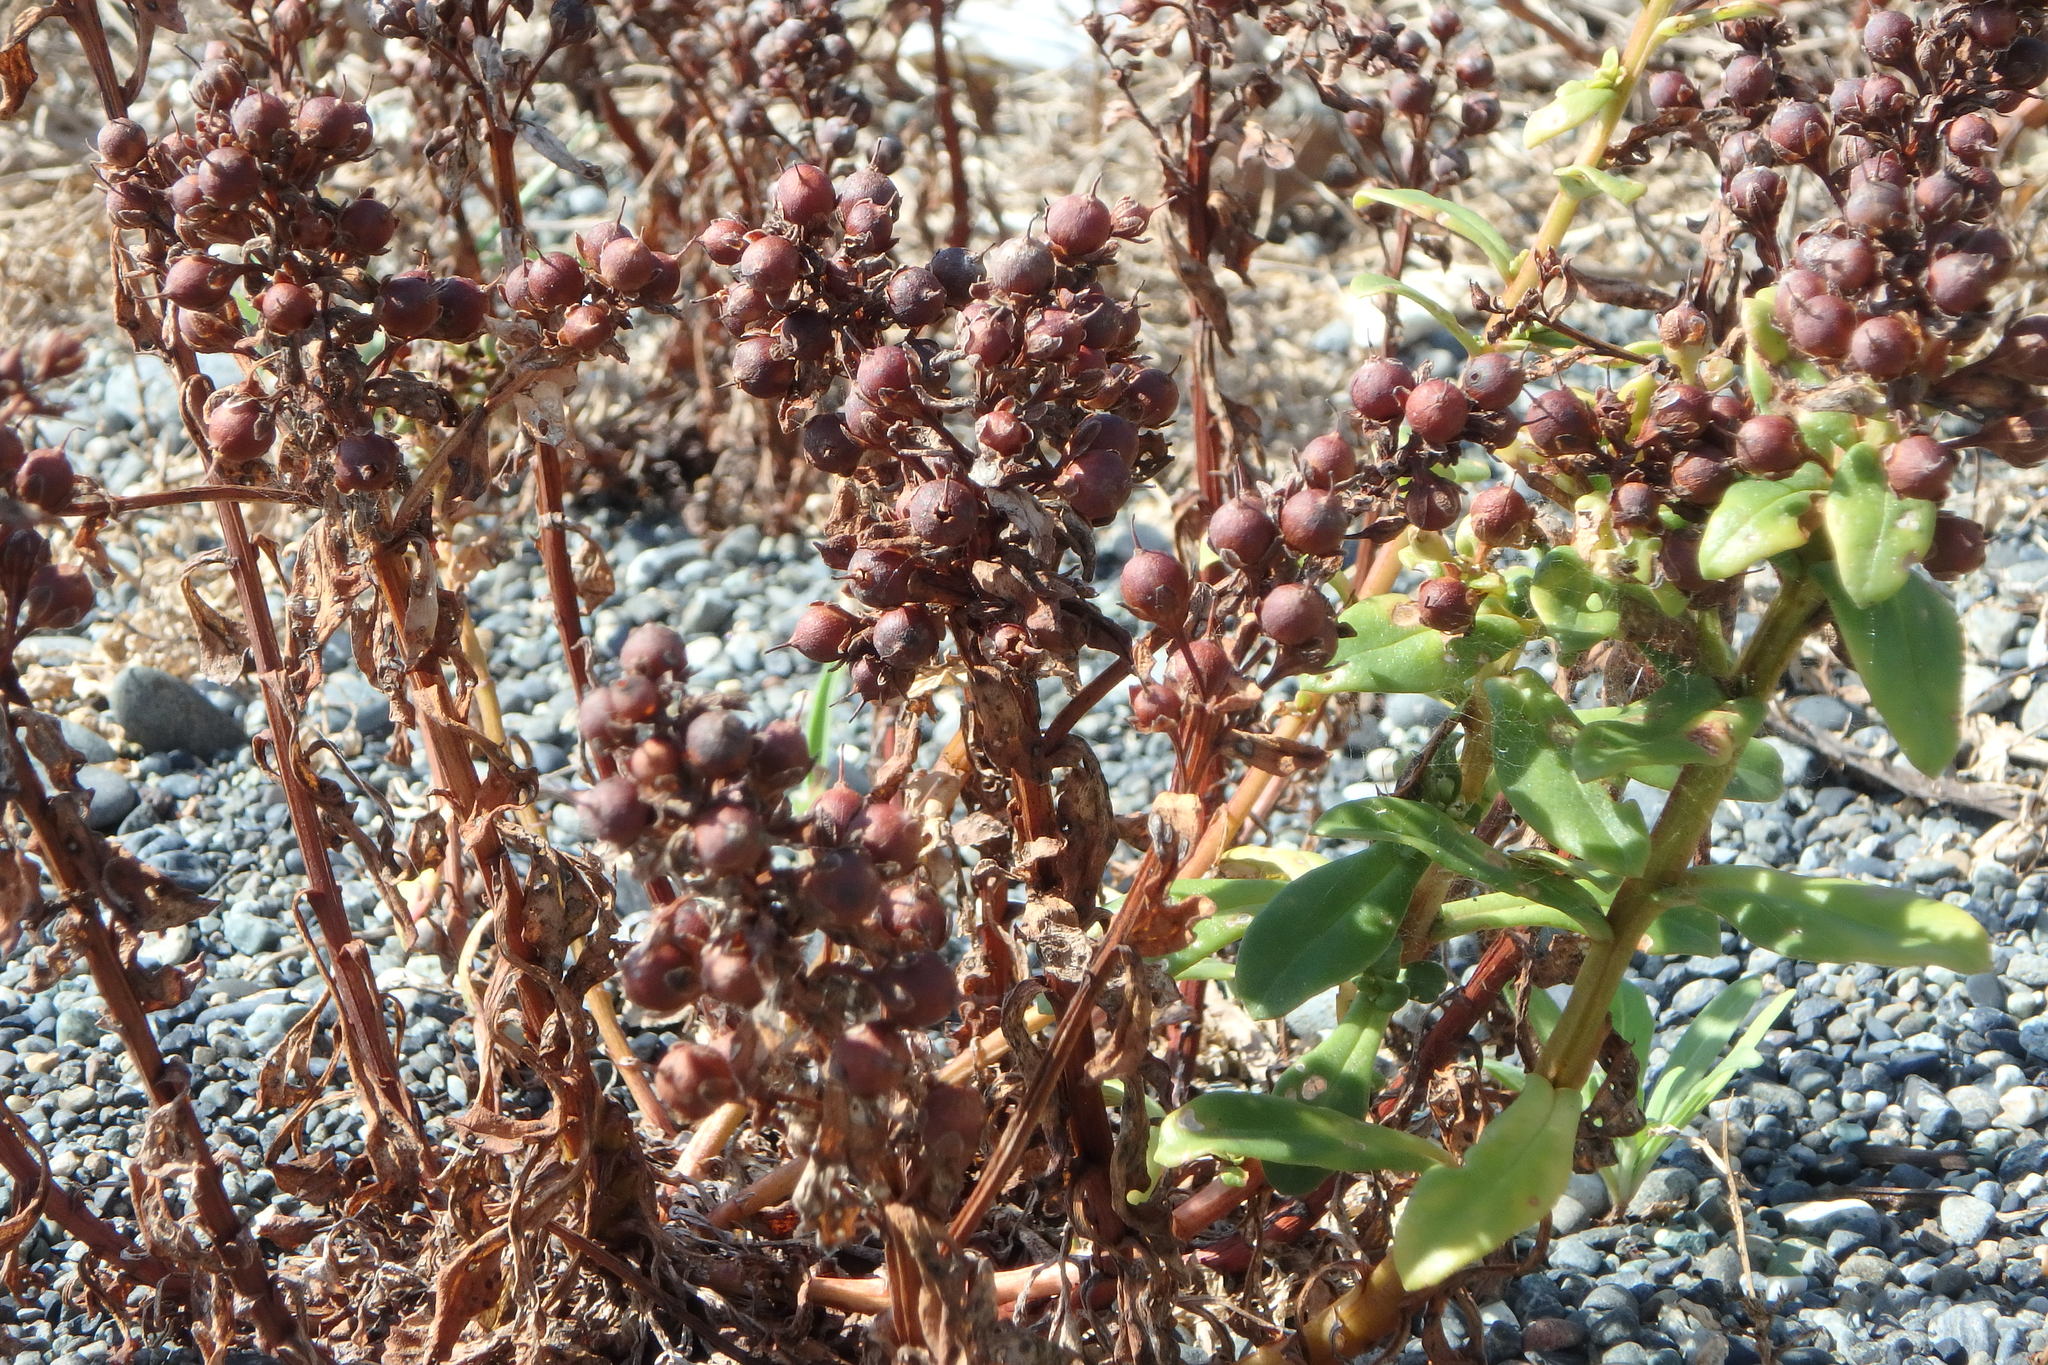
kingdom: Plantae
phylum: Tracheophyta
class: Magnoliopsida
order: Ericales
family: Primulaceae
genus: Lysimachia
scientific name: Lysimachia mauritiana
